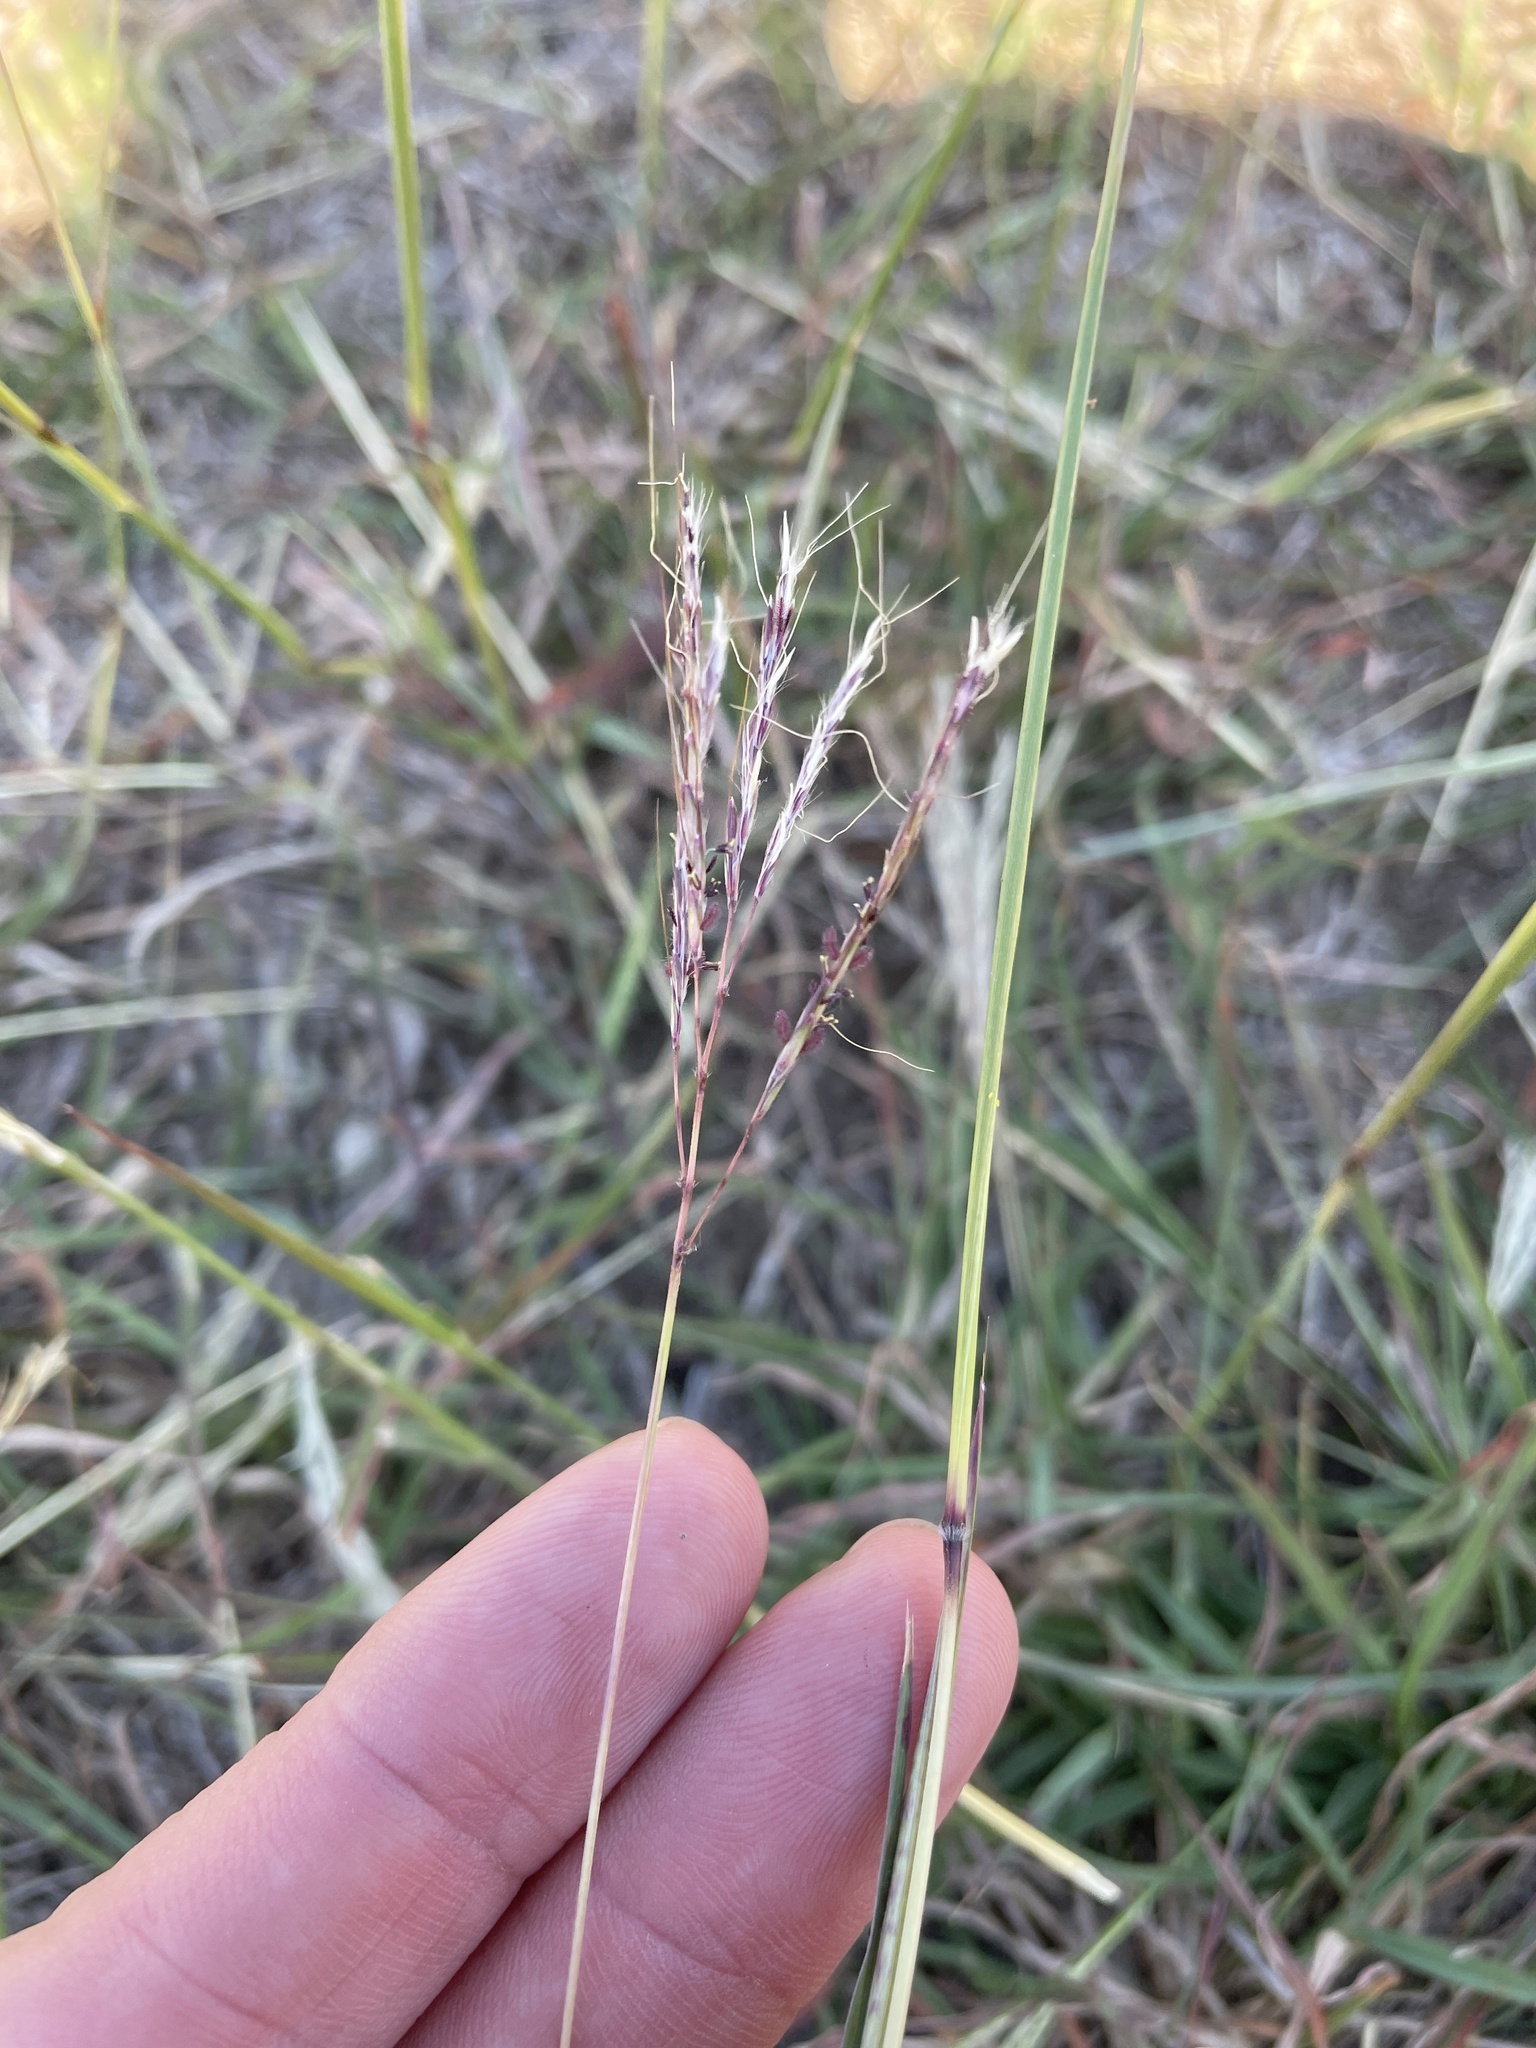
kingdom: Plantae
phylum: Tracheophyta
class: Liliopsida
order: Poales
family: Poaceae
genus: Bothriochloa
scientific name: Bothriochloa ischaemum
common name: Yellow bluestem
